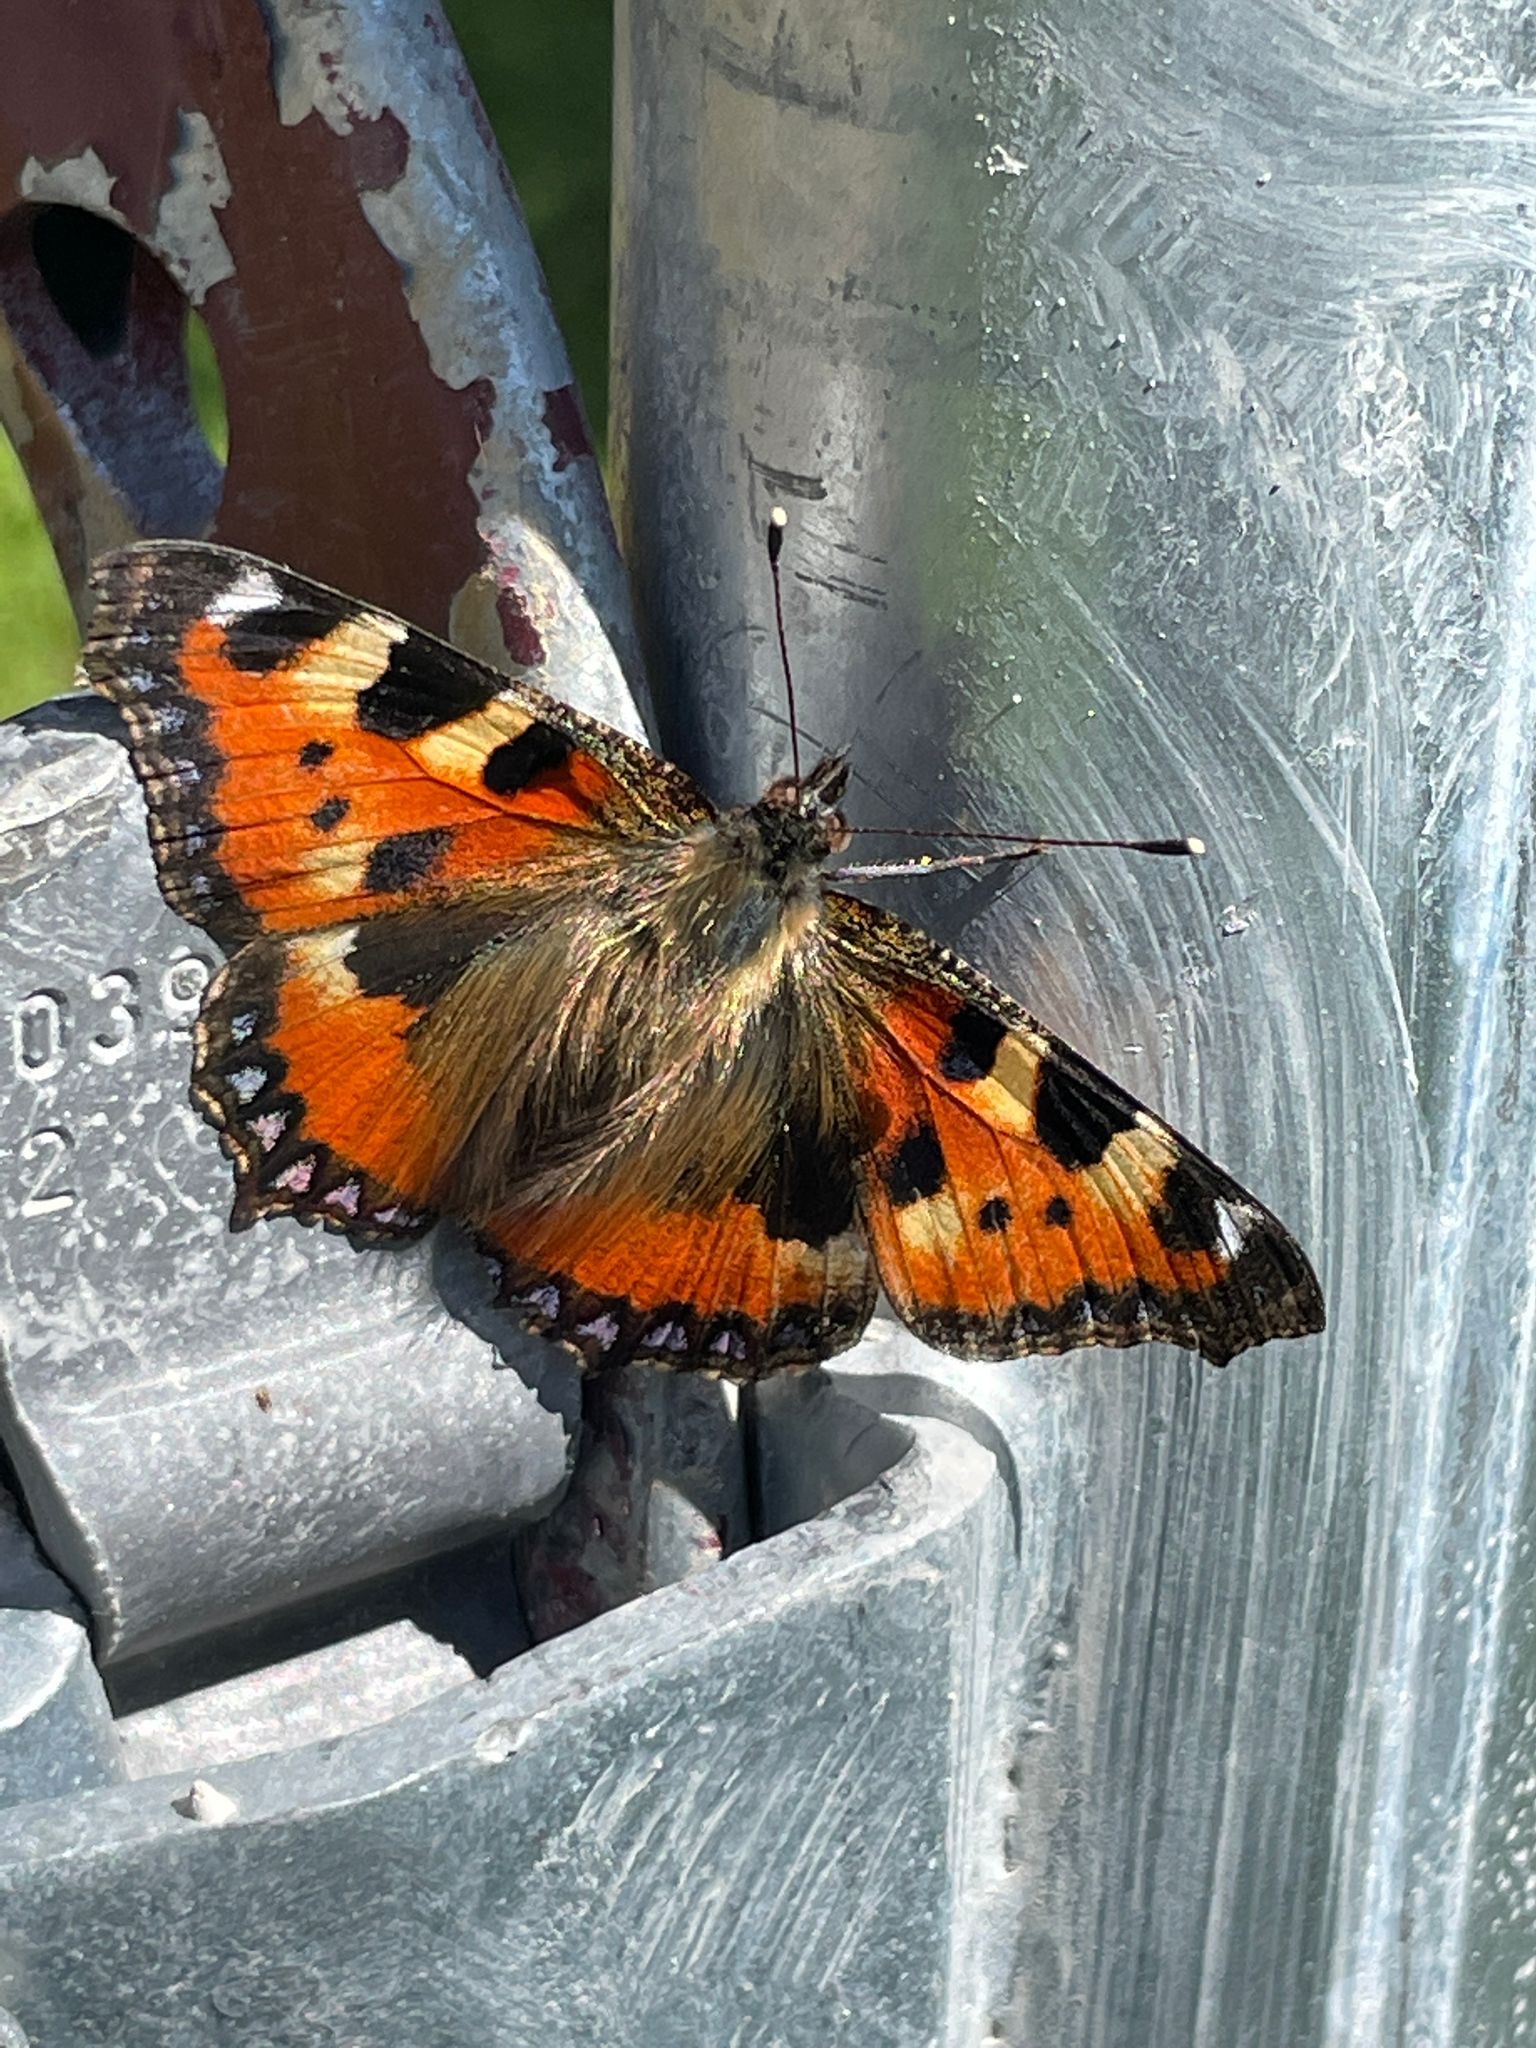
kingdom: Animalia
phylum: Arthropoda
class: Insecta
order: Lepidoptera
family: Nymphalidae
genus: Aglais
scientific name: Aglais urticae
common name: Small tortoiseshell
